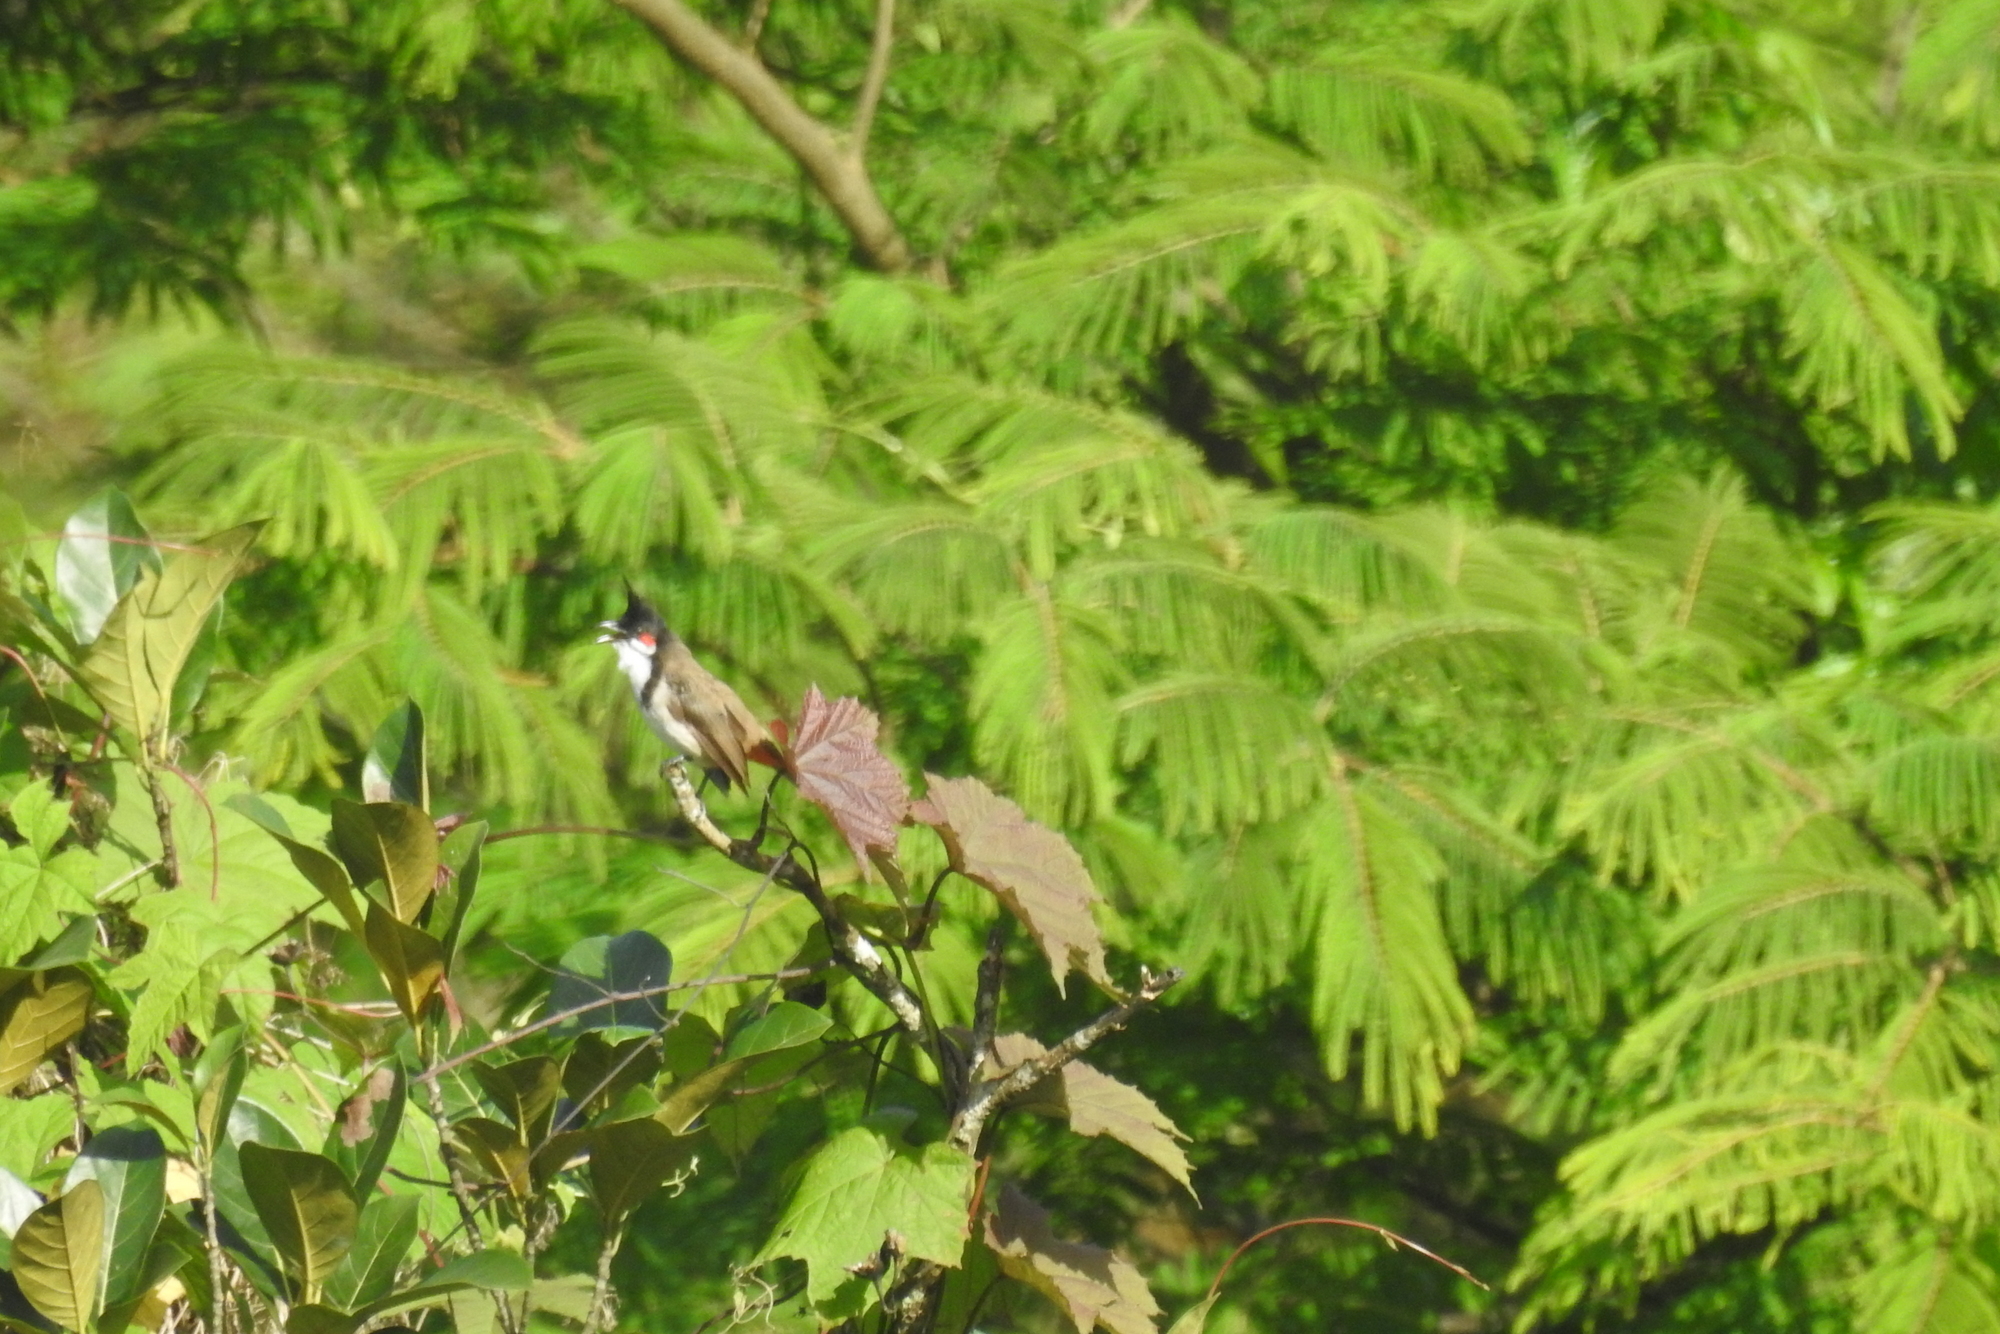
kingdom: Animalia
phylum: Chordata
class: Aves
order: Passeriformes
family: Pycnonotidae
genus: Pycnonotus
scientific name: Pycnonotus jocosus
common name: Red-whiskered bulbul
